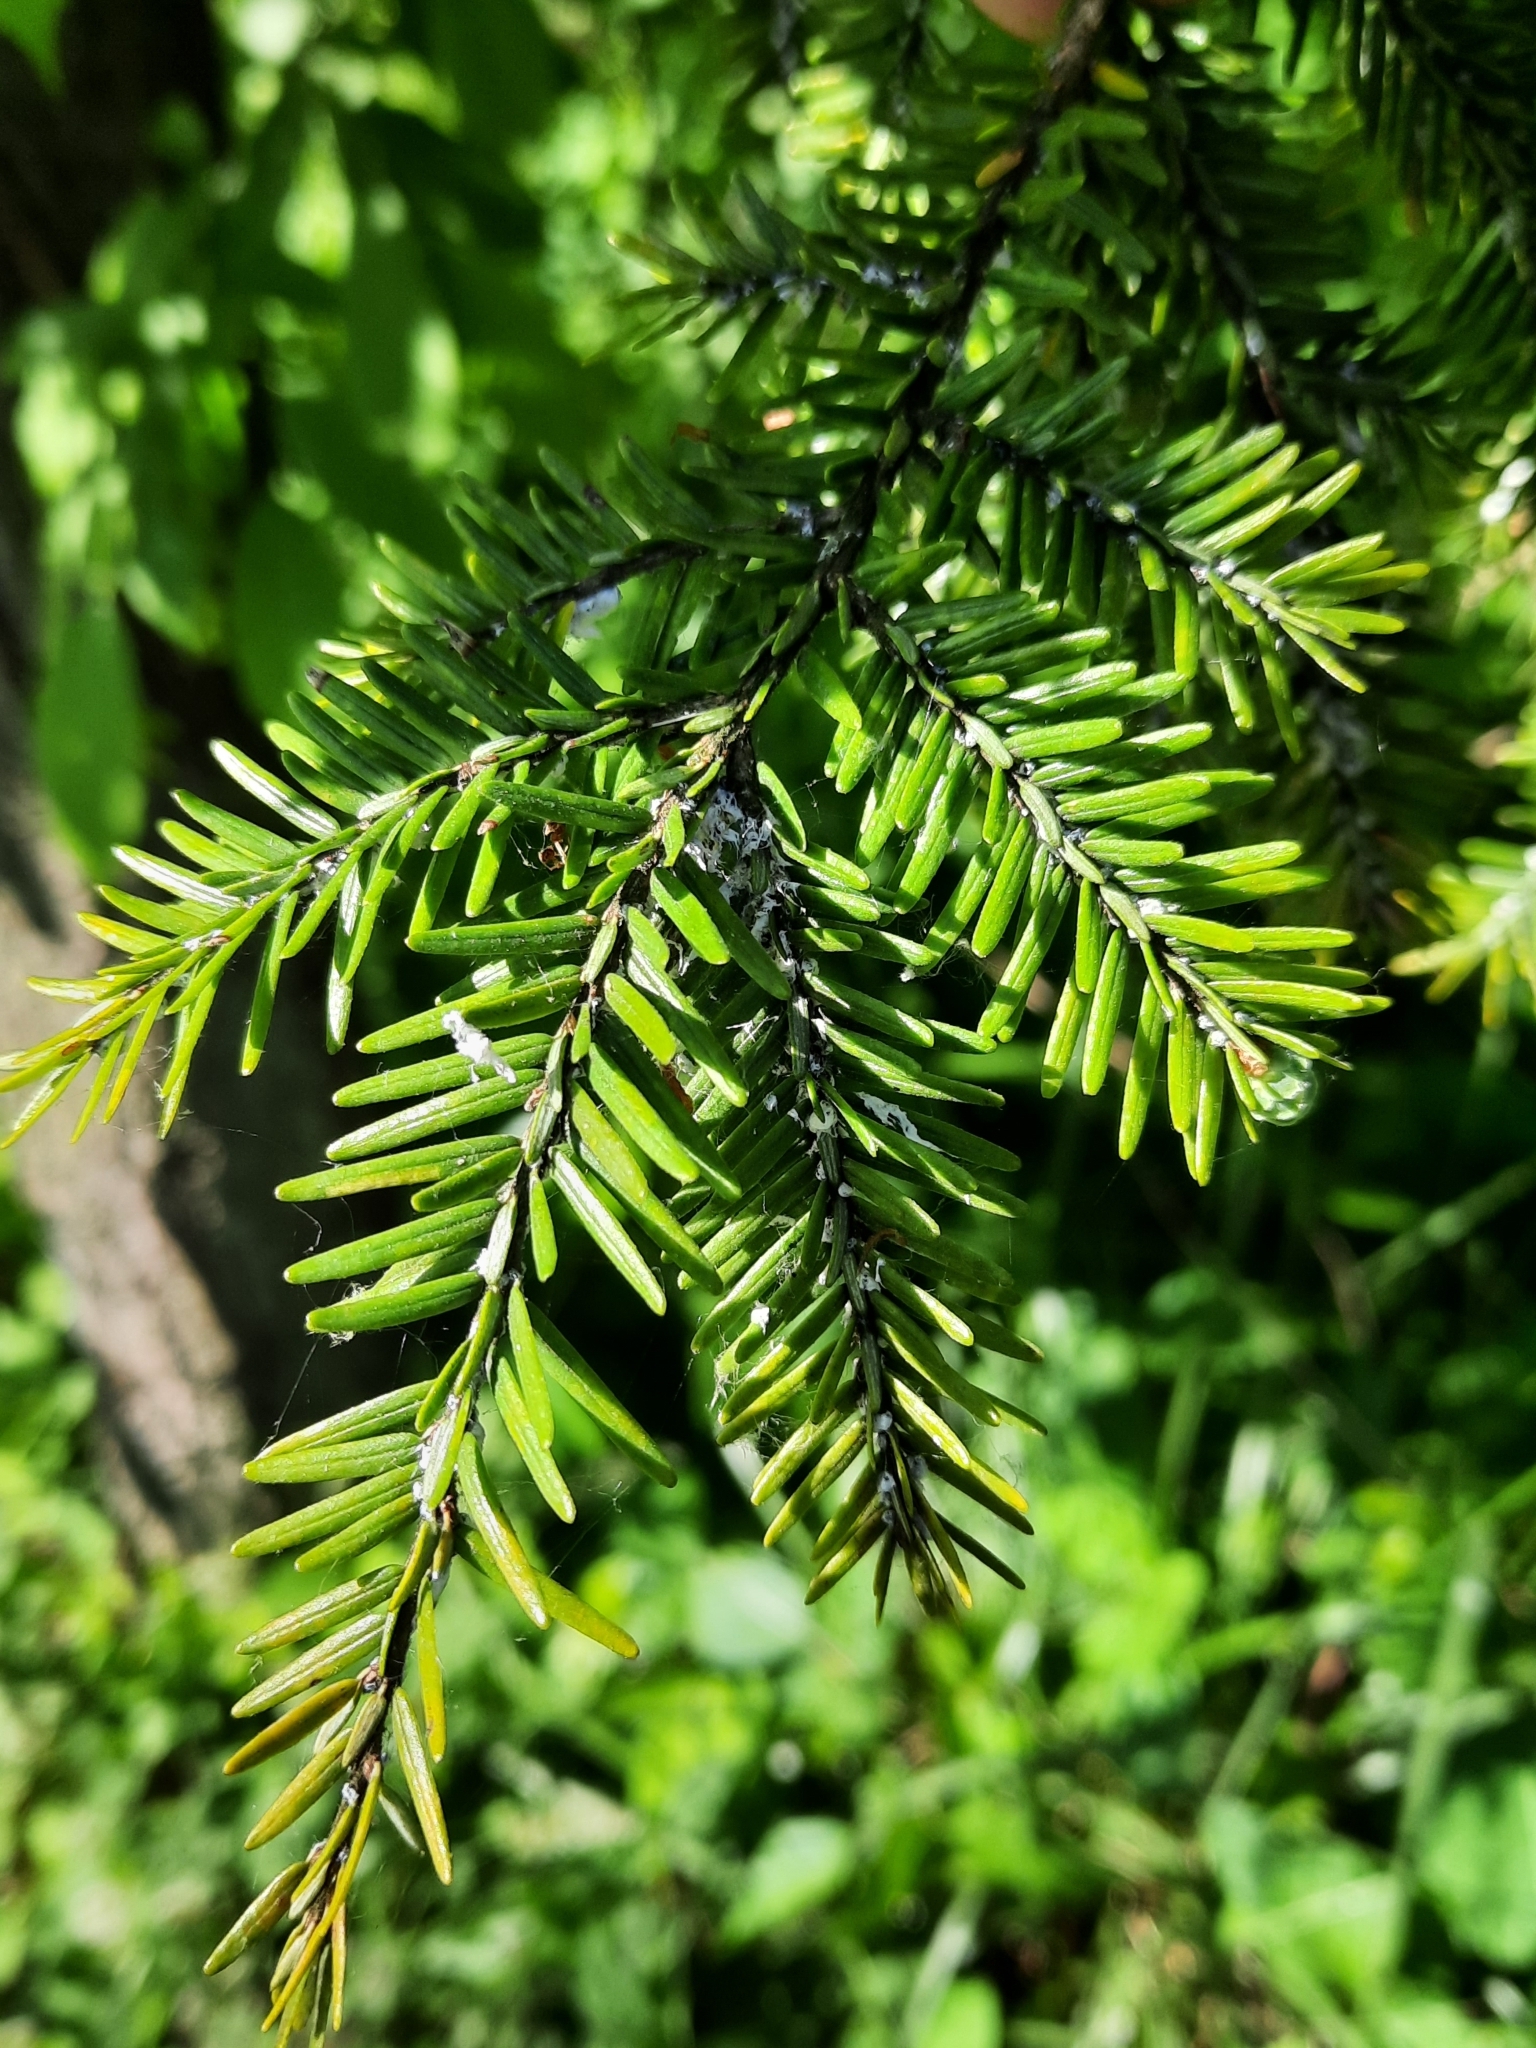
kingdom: Animalia
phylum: Arthropoda
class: Insecta
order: Hemiptera
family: Adelgidae
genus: Adelges
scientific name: Adelges tsugae
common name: Hemlock woolly adelgid
